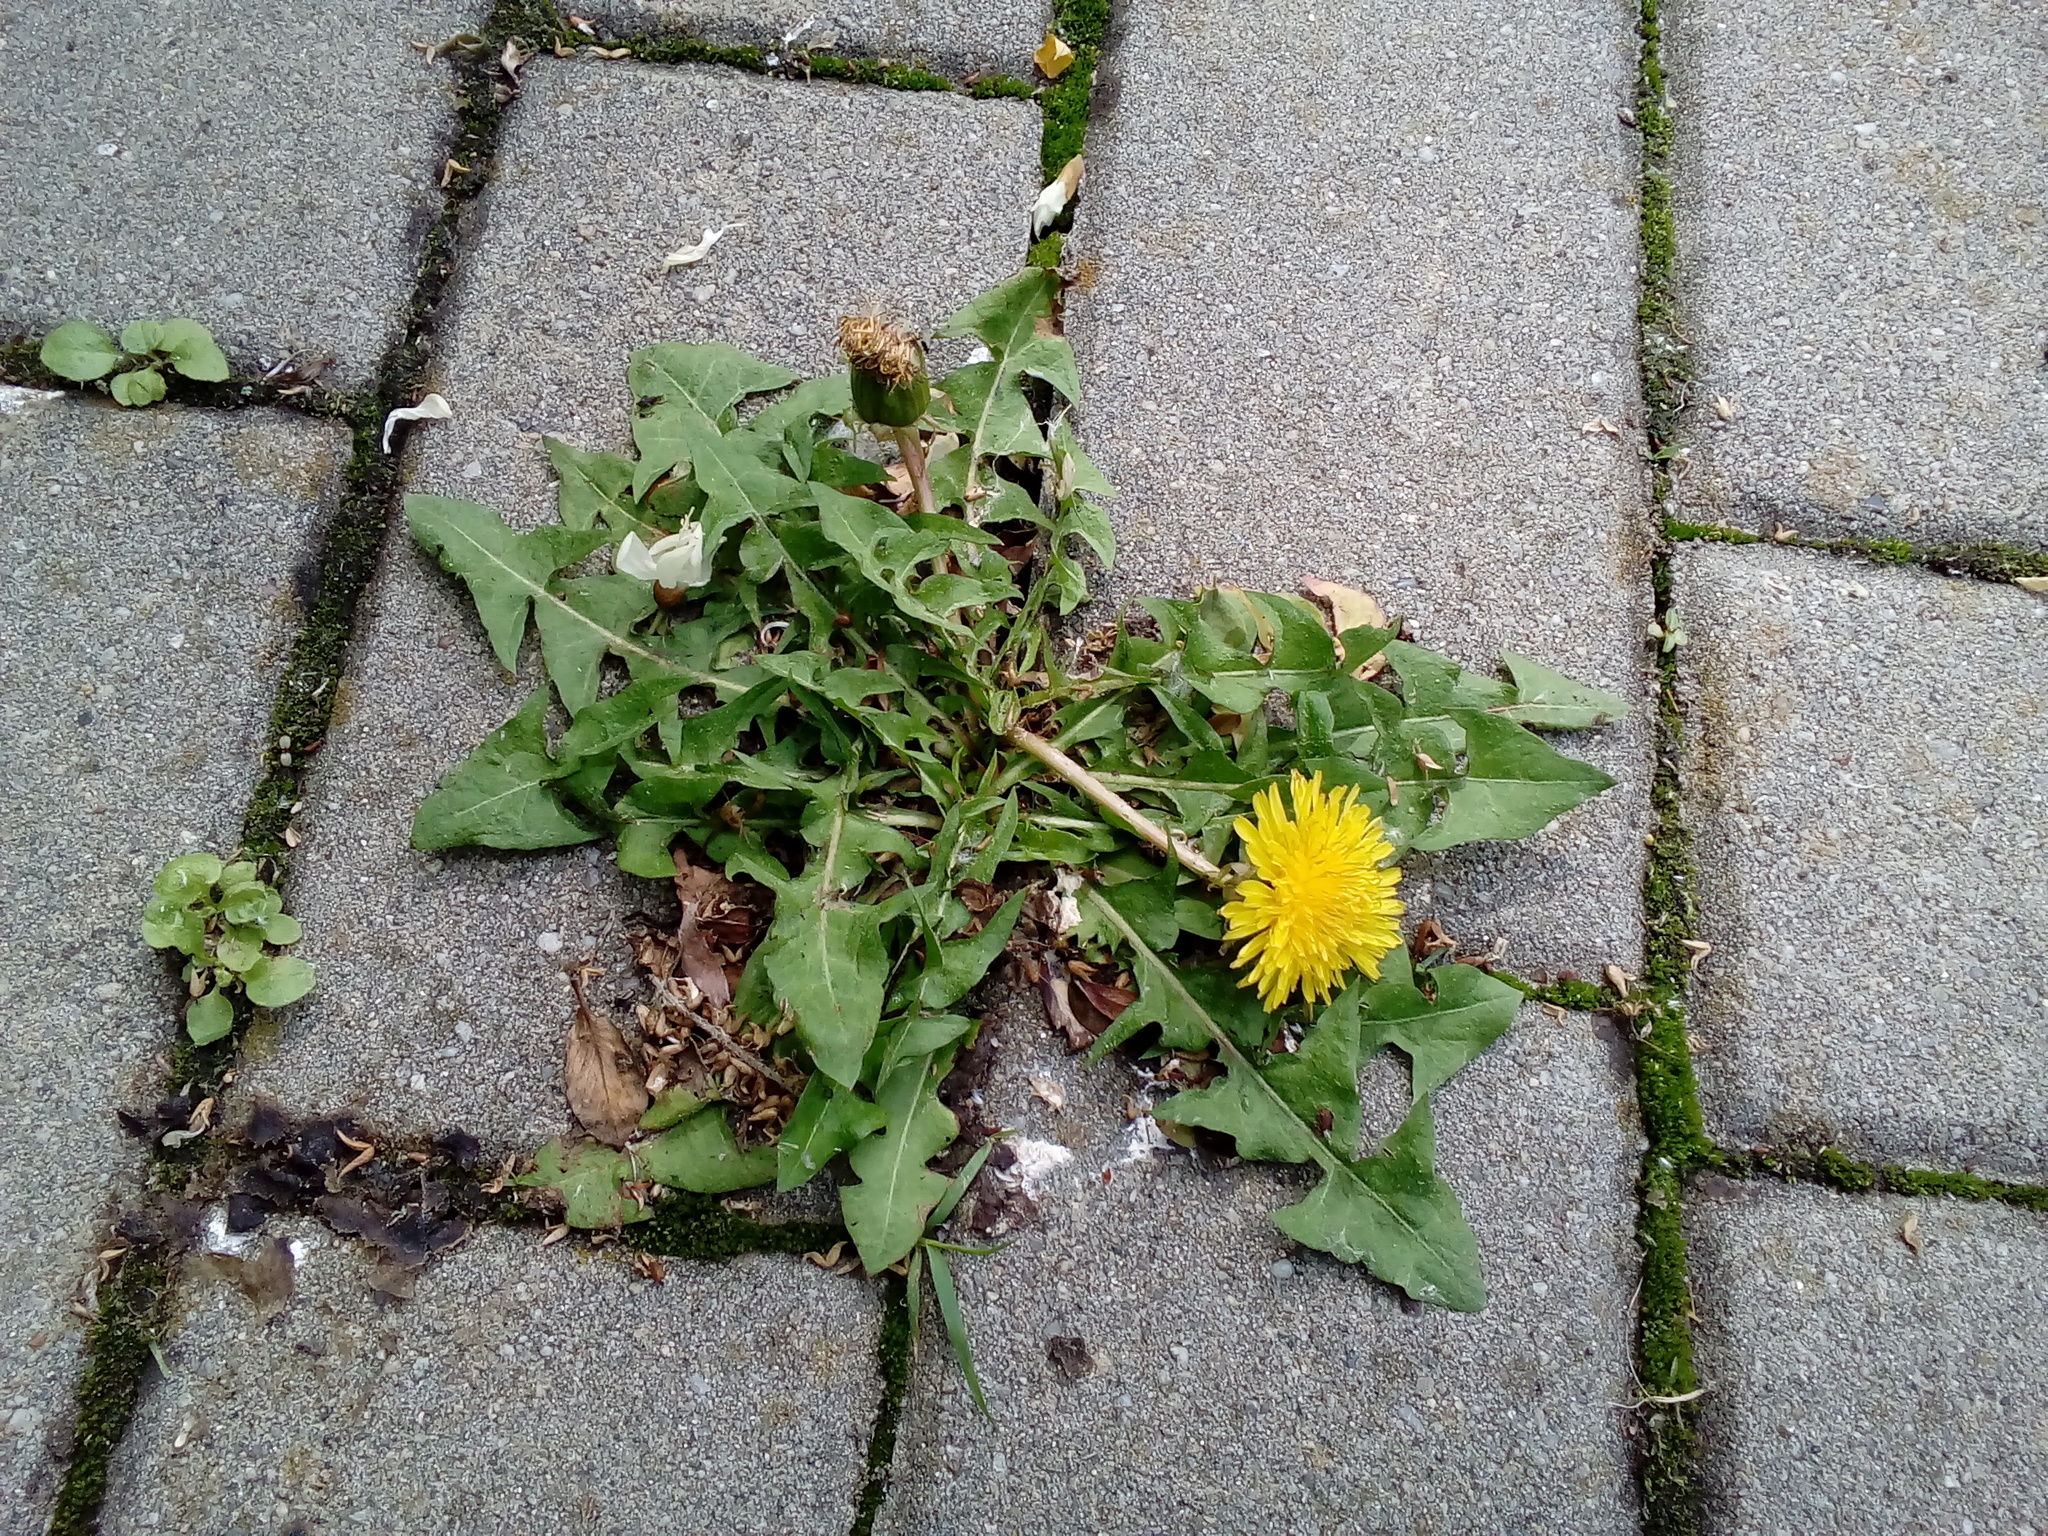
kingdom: Plantae
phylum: Tracheophyta
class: Magnoliopsida
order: Asterales
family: Asteraceae
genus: Taraxacum
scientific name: Taraxacum officinale
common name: Common dandelion
